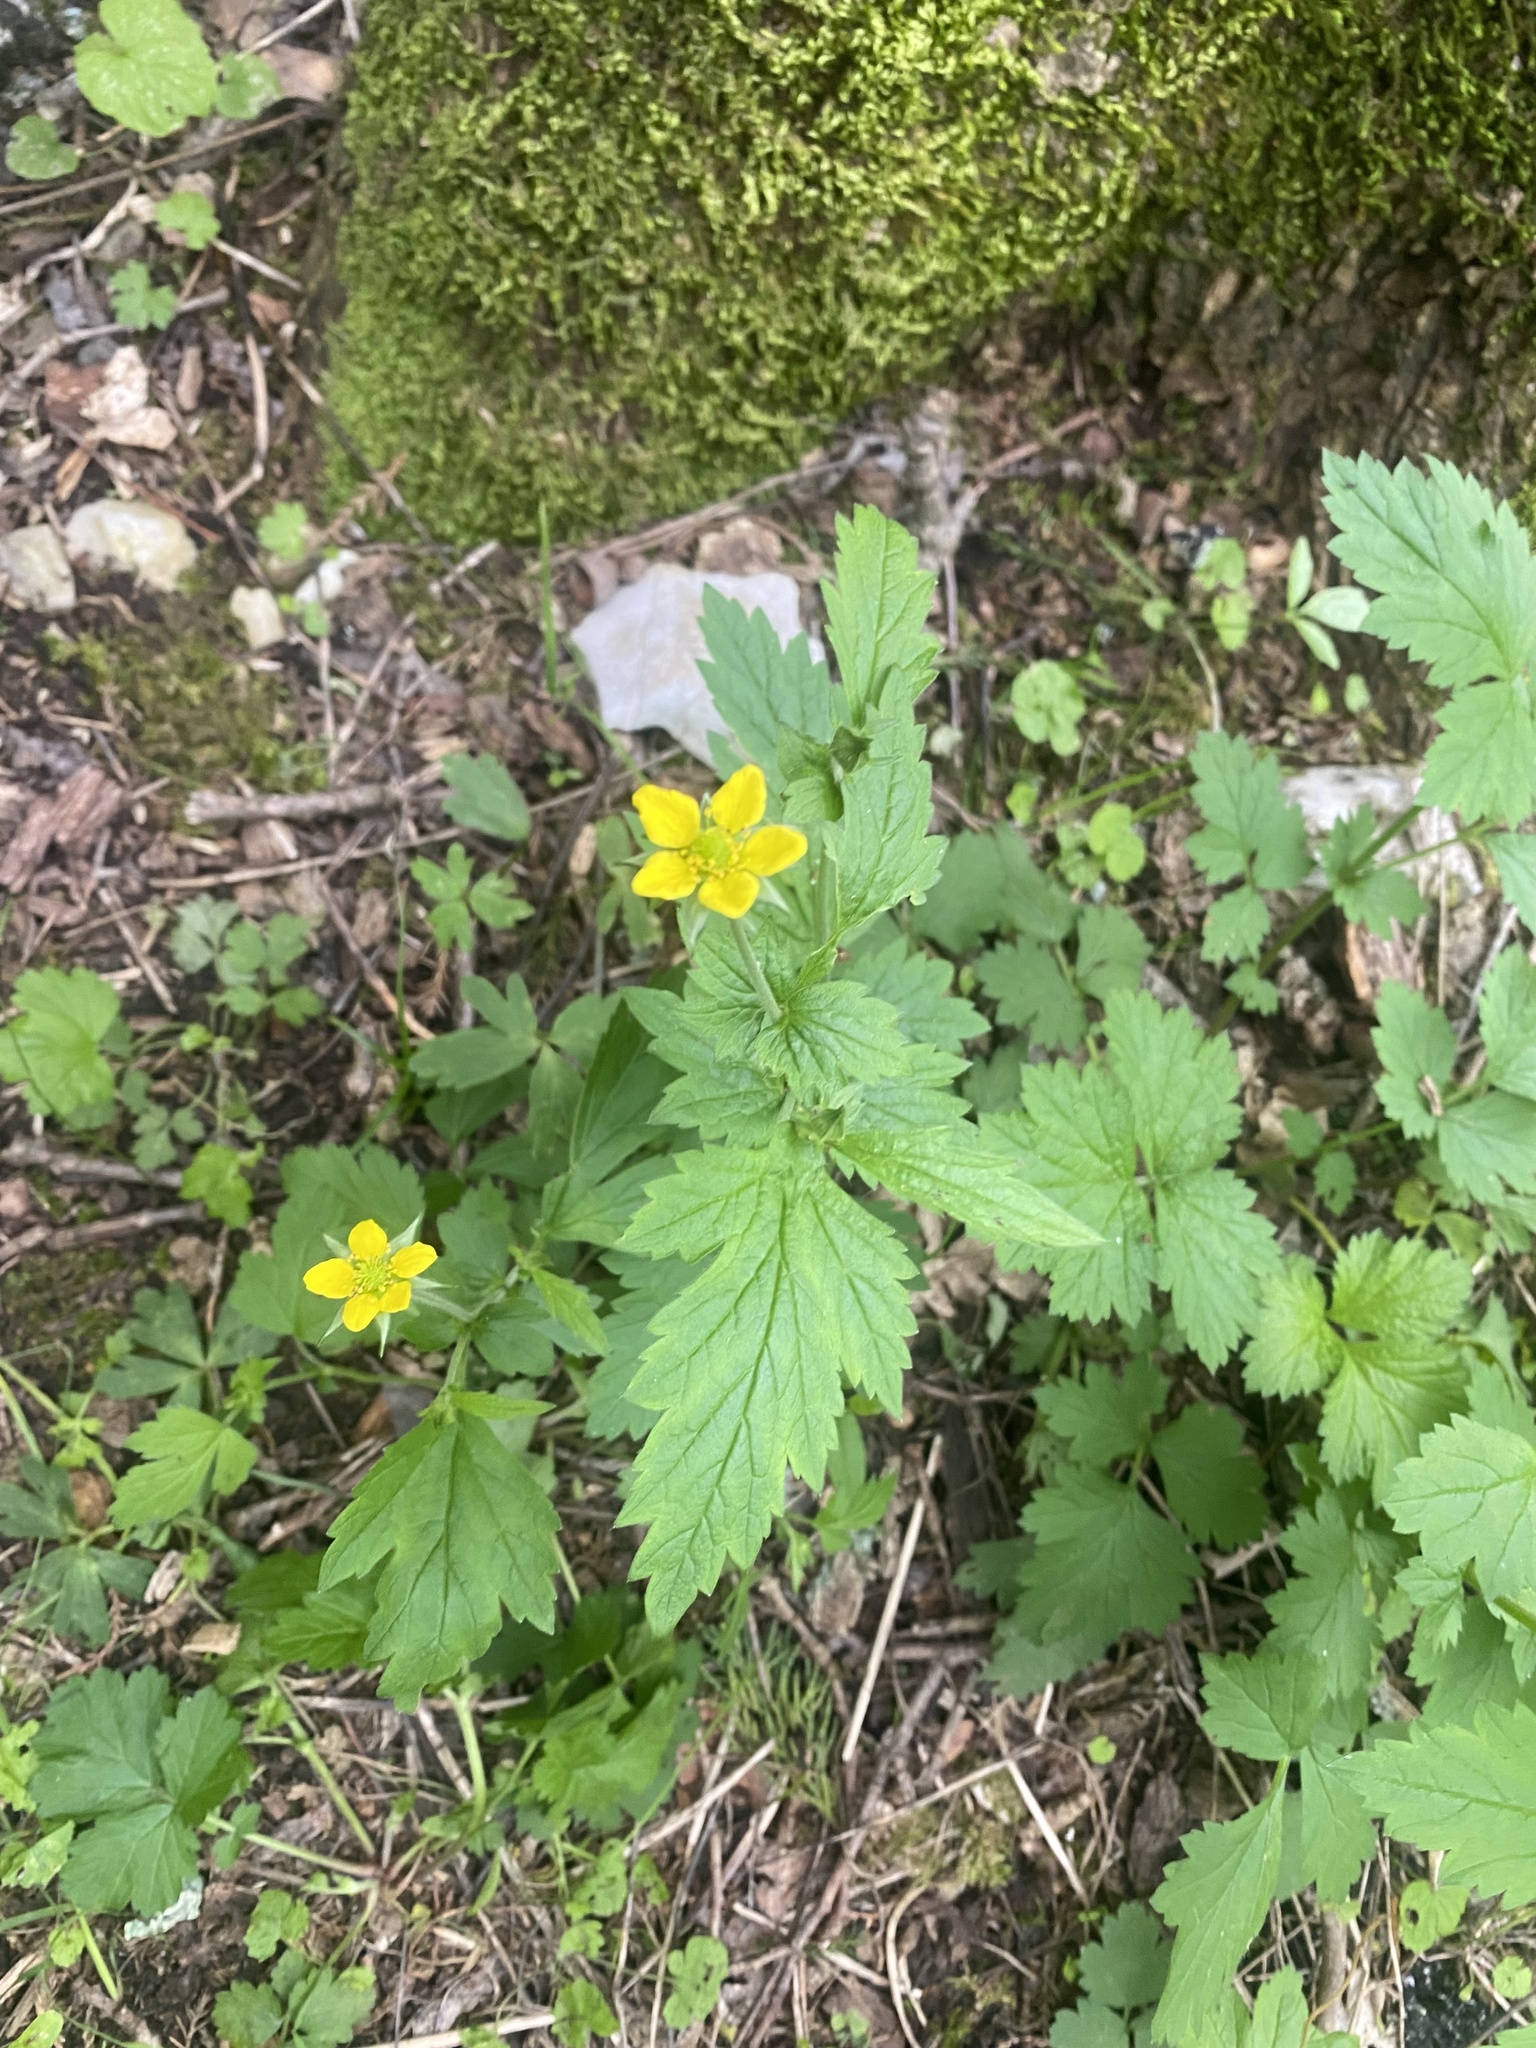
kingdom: Plantae
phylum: Tracheophyta
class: Magnoliopsida
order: Rosales
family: Rosaceae
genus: Geum
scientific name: Geum urbanum
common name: Wood avens
